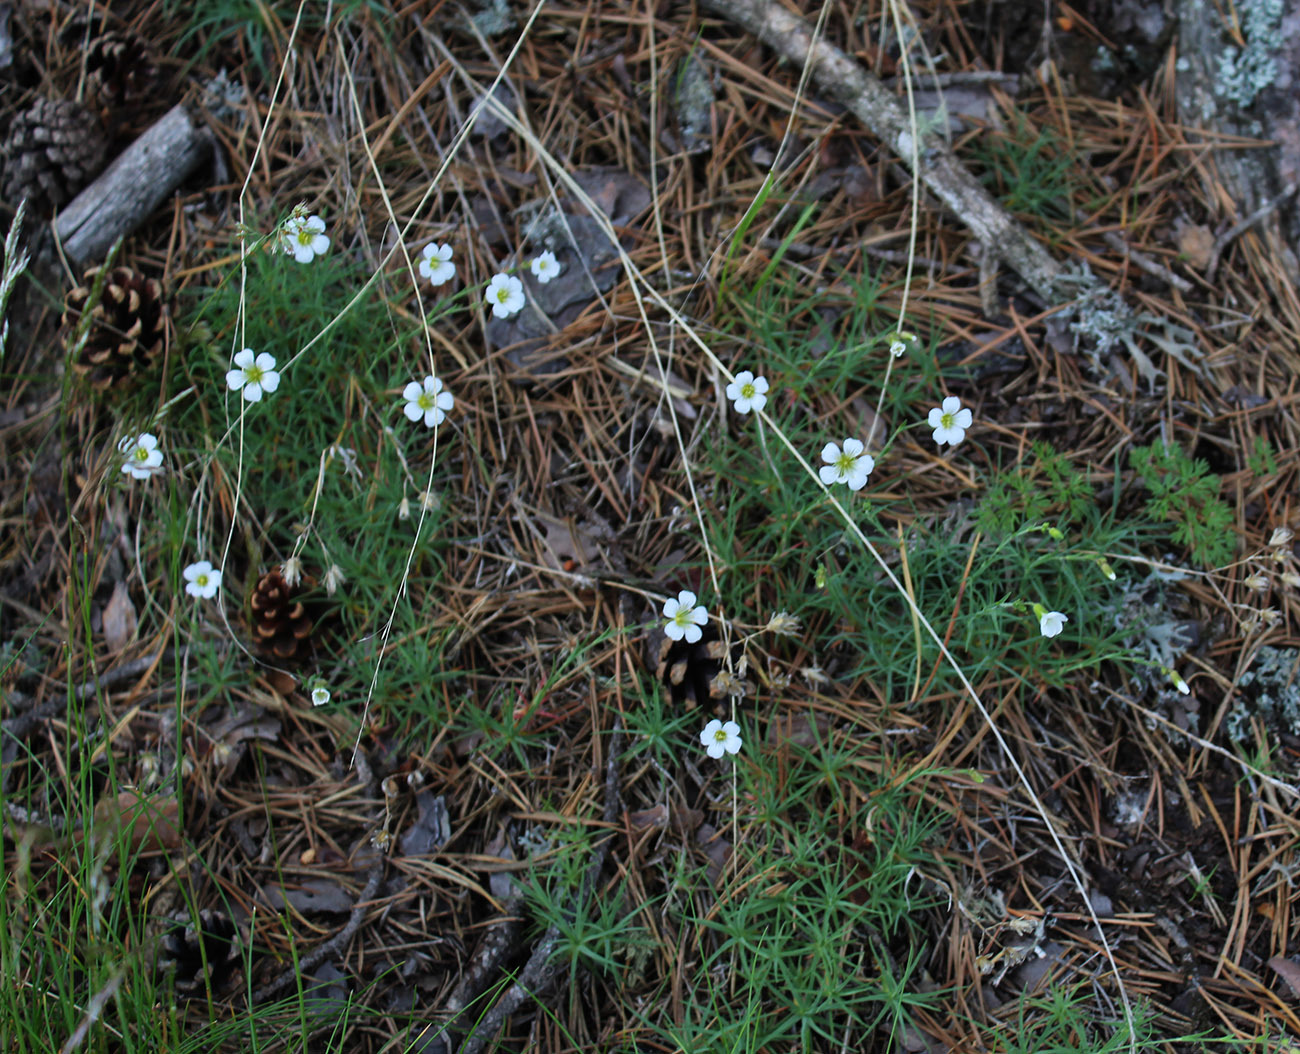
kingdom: Plantae
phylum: Tracheophyta
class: Magnoliopsida
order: Caryophyllales
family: Caryophyllaceae
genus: Cherleria
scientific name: Cherleria circassica
